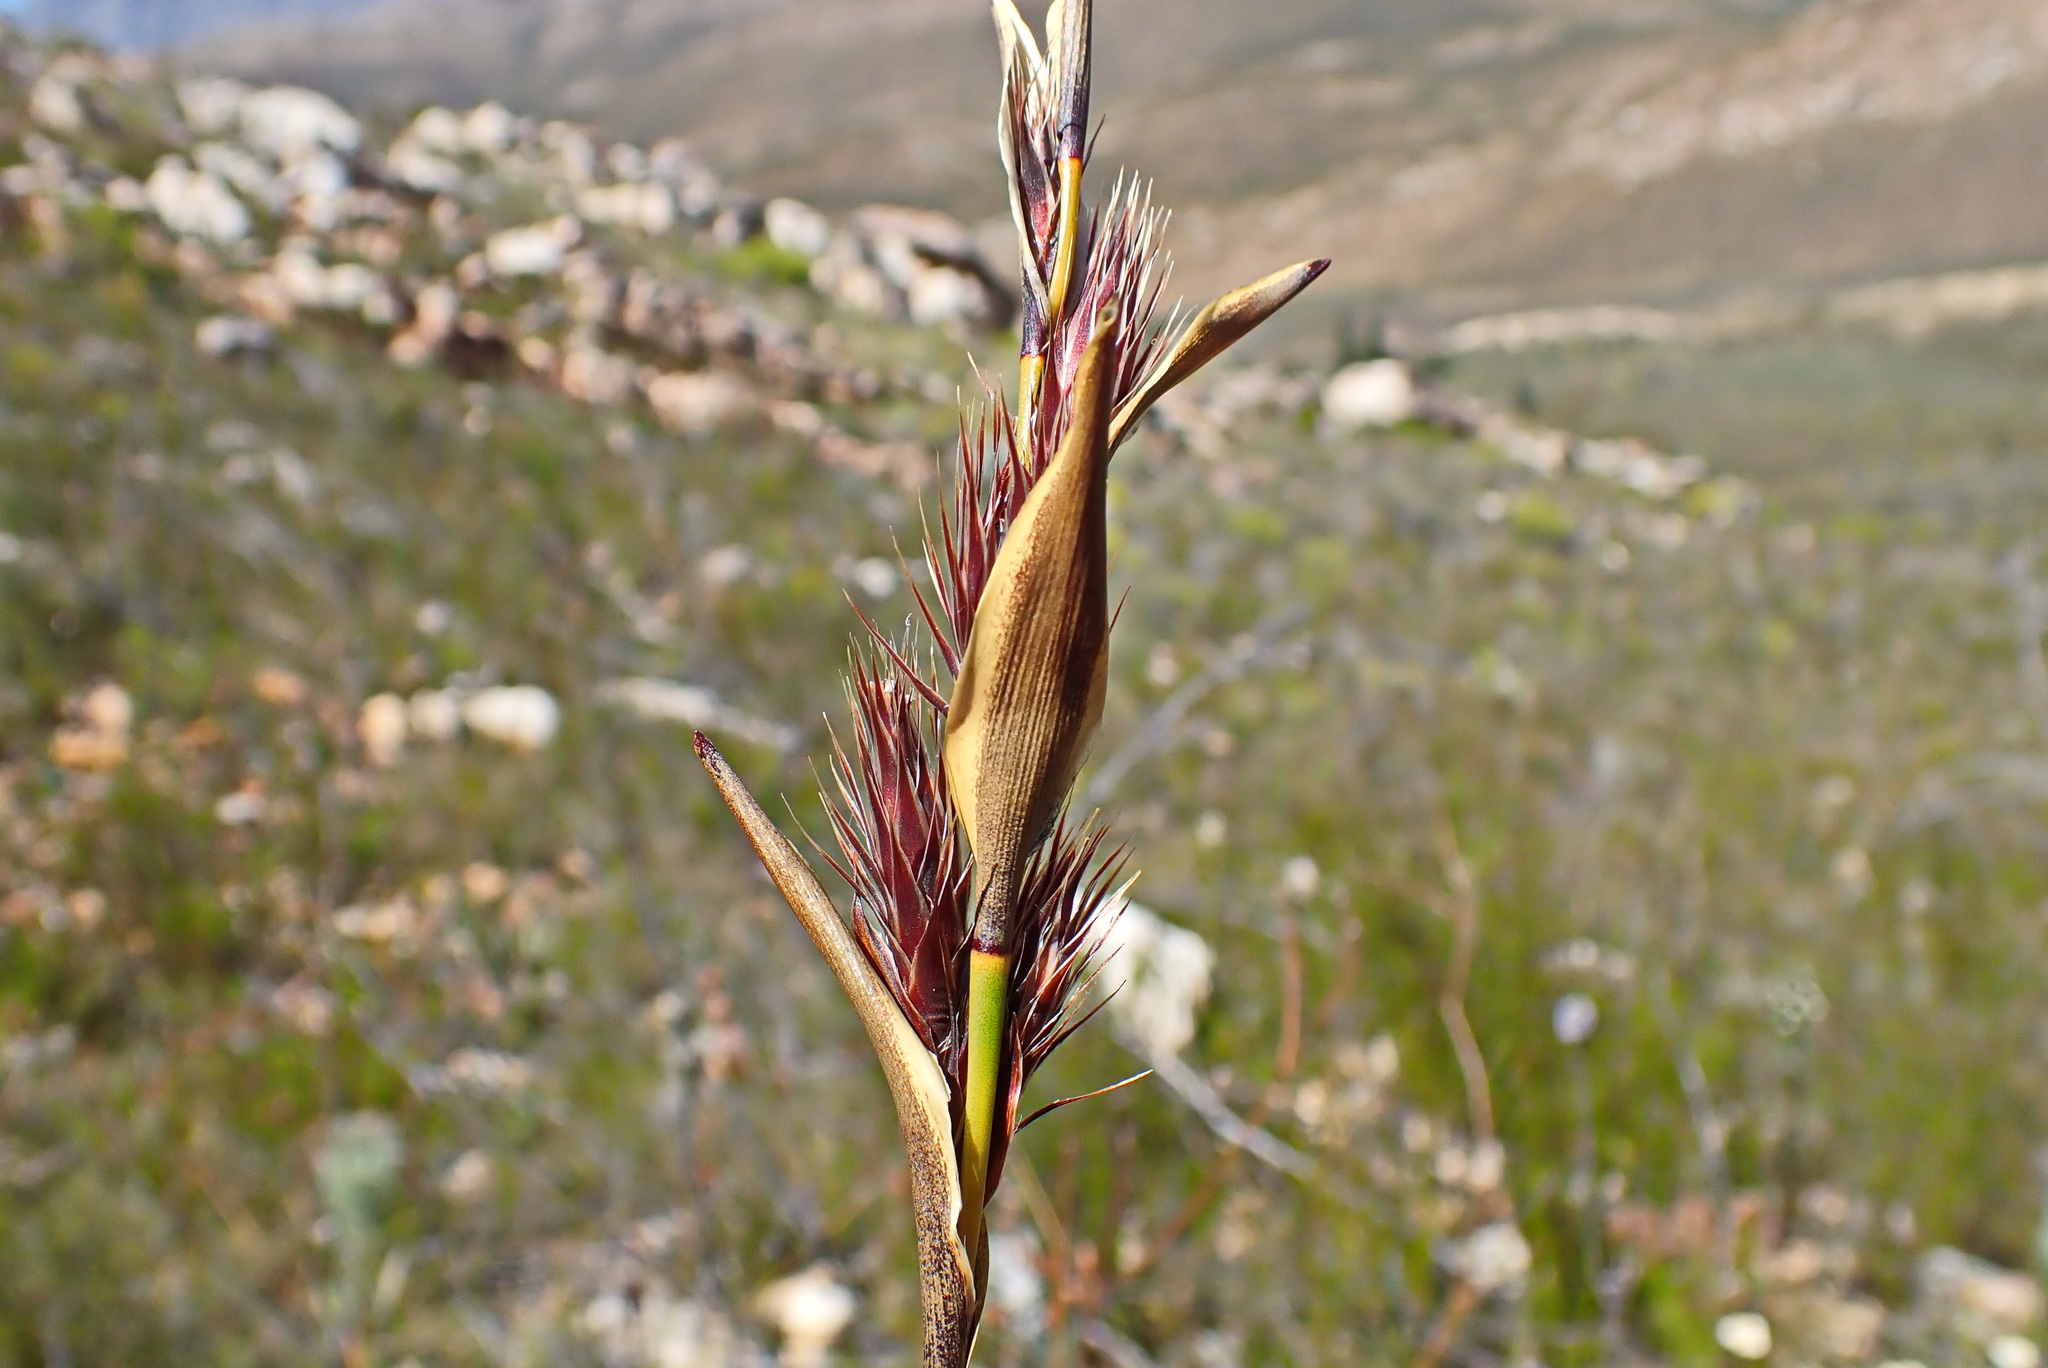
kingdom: Plantae
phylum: Tracheophyta
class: Liliopsida
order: Poales
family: Restionaceae
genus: Hypodiscus
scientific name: Hypodiscus aristatus
